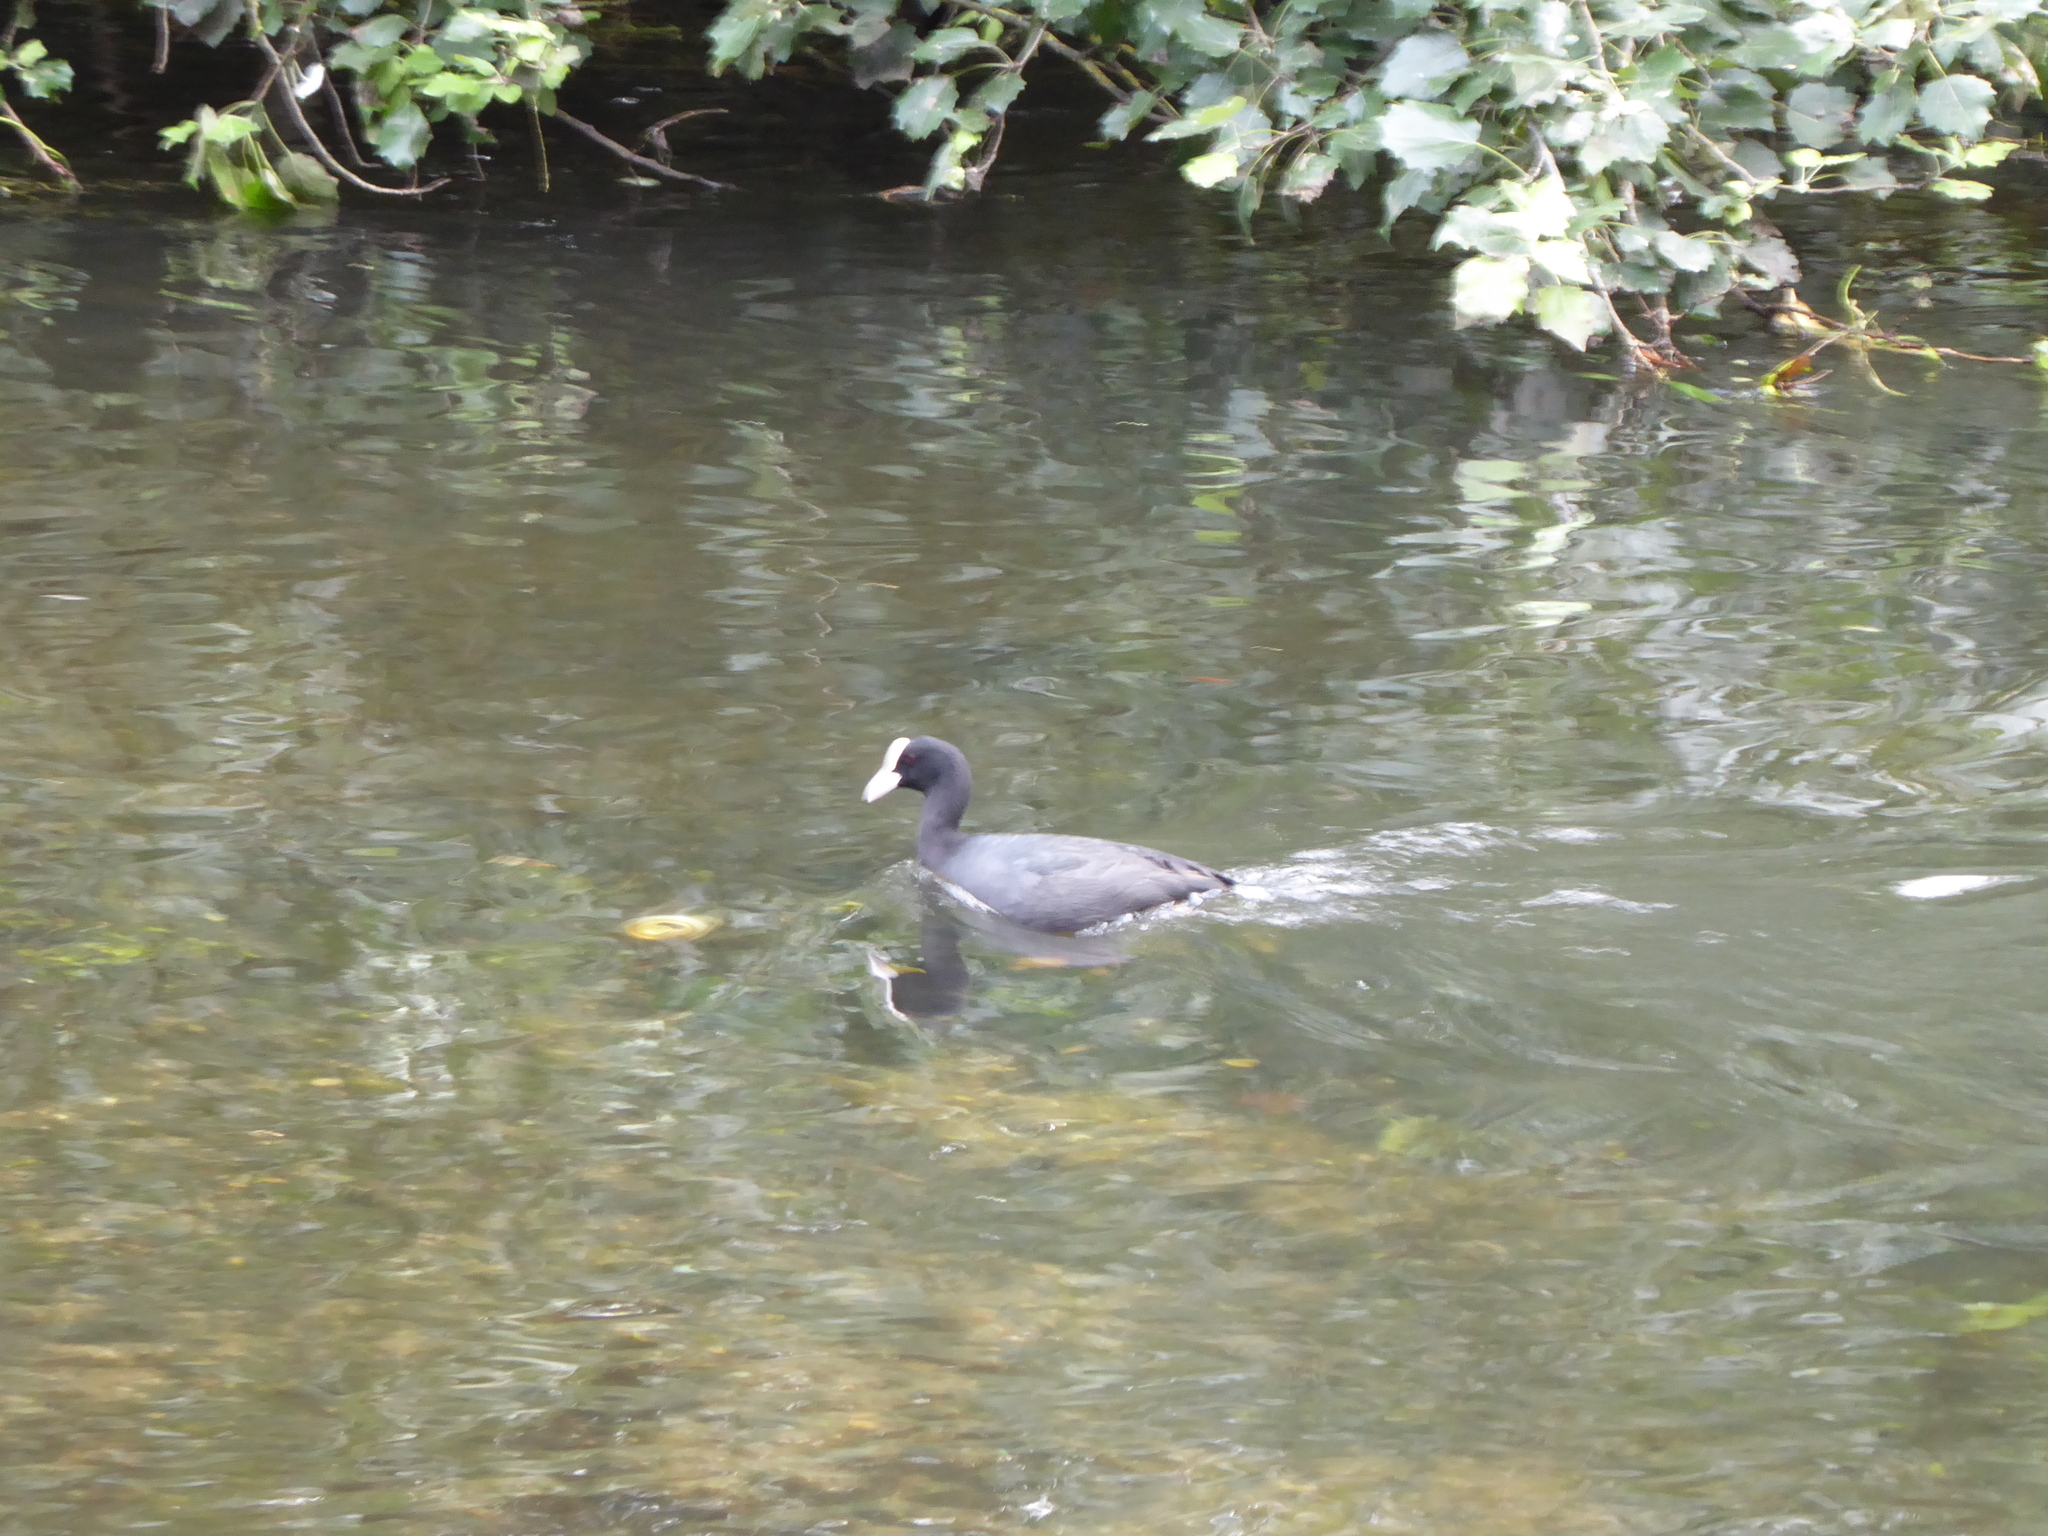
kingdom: Animalia
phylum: Chordata
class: Aves
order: Gruiformes
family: Rallidae
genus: Fulica
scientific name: Fulica atra
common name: Eurasian coot
